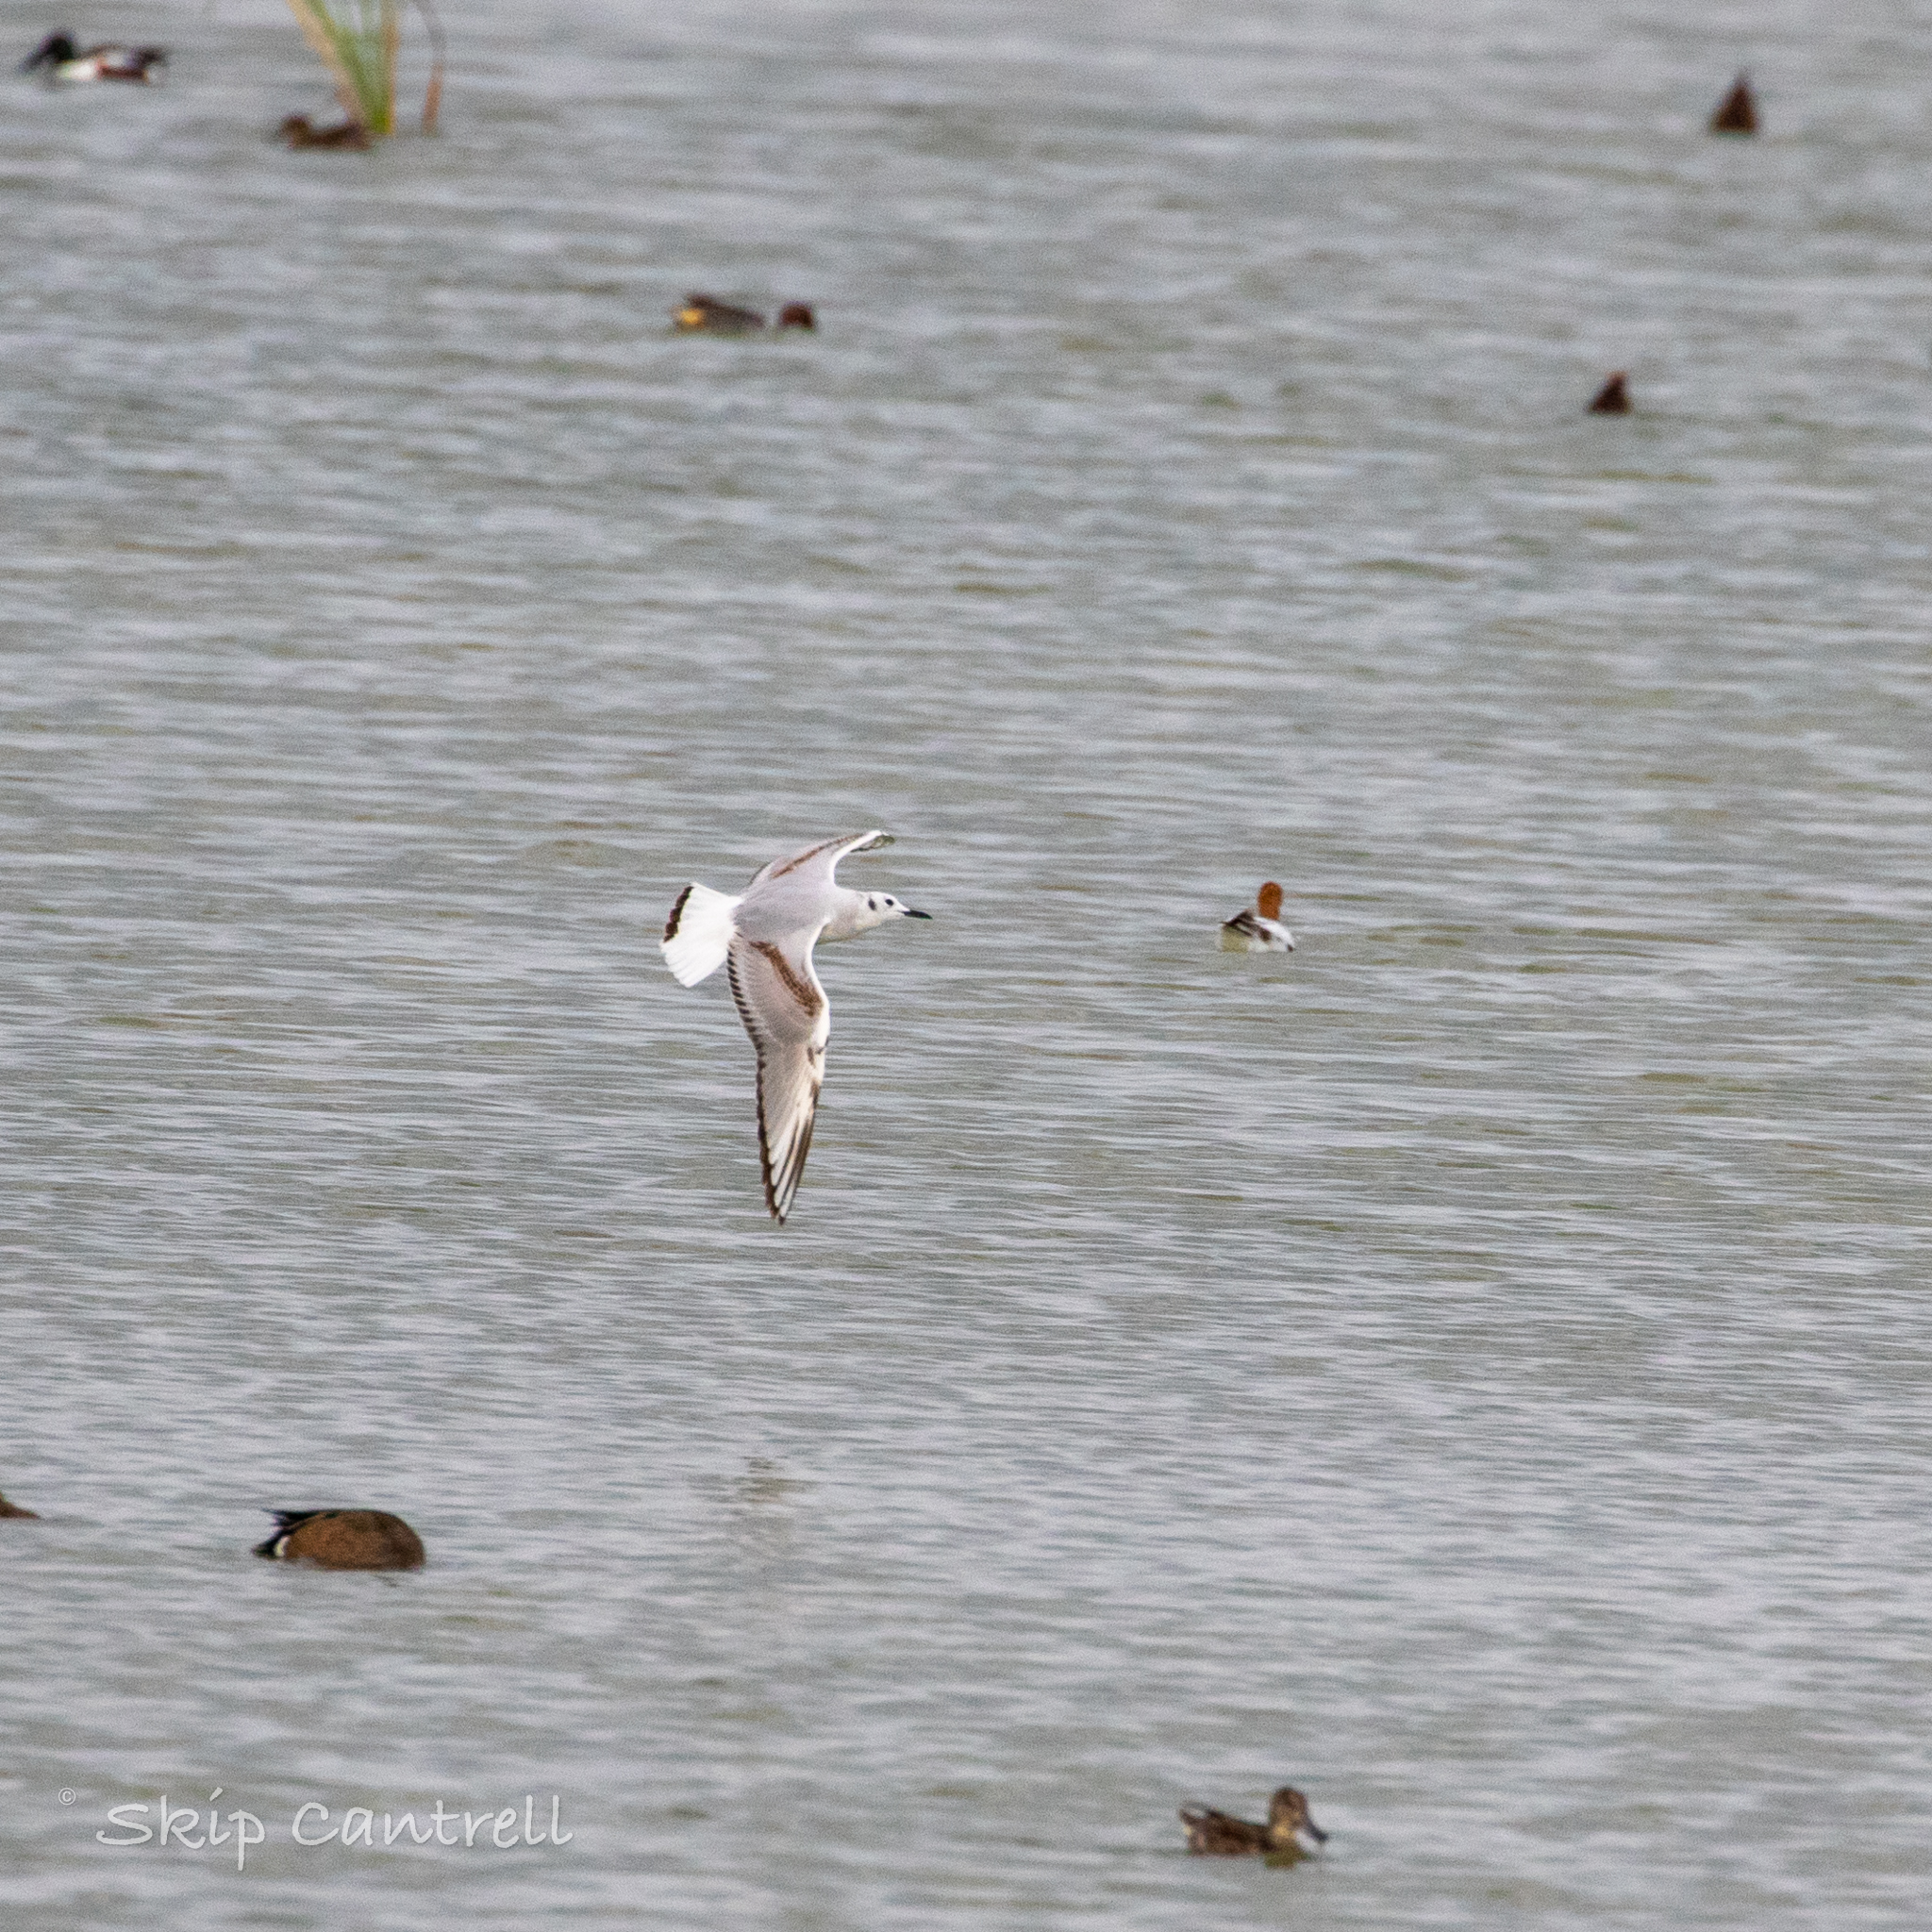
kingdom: Animalia
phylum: Chordata
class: Aves
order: Charadriiformes
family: Laridae
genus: Chroicocephalus
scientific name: Chroicocephalus philadelphia
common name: Bonaparte's gull
